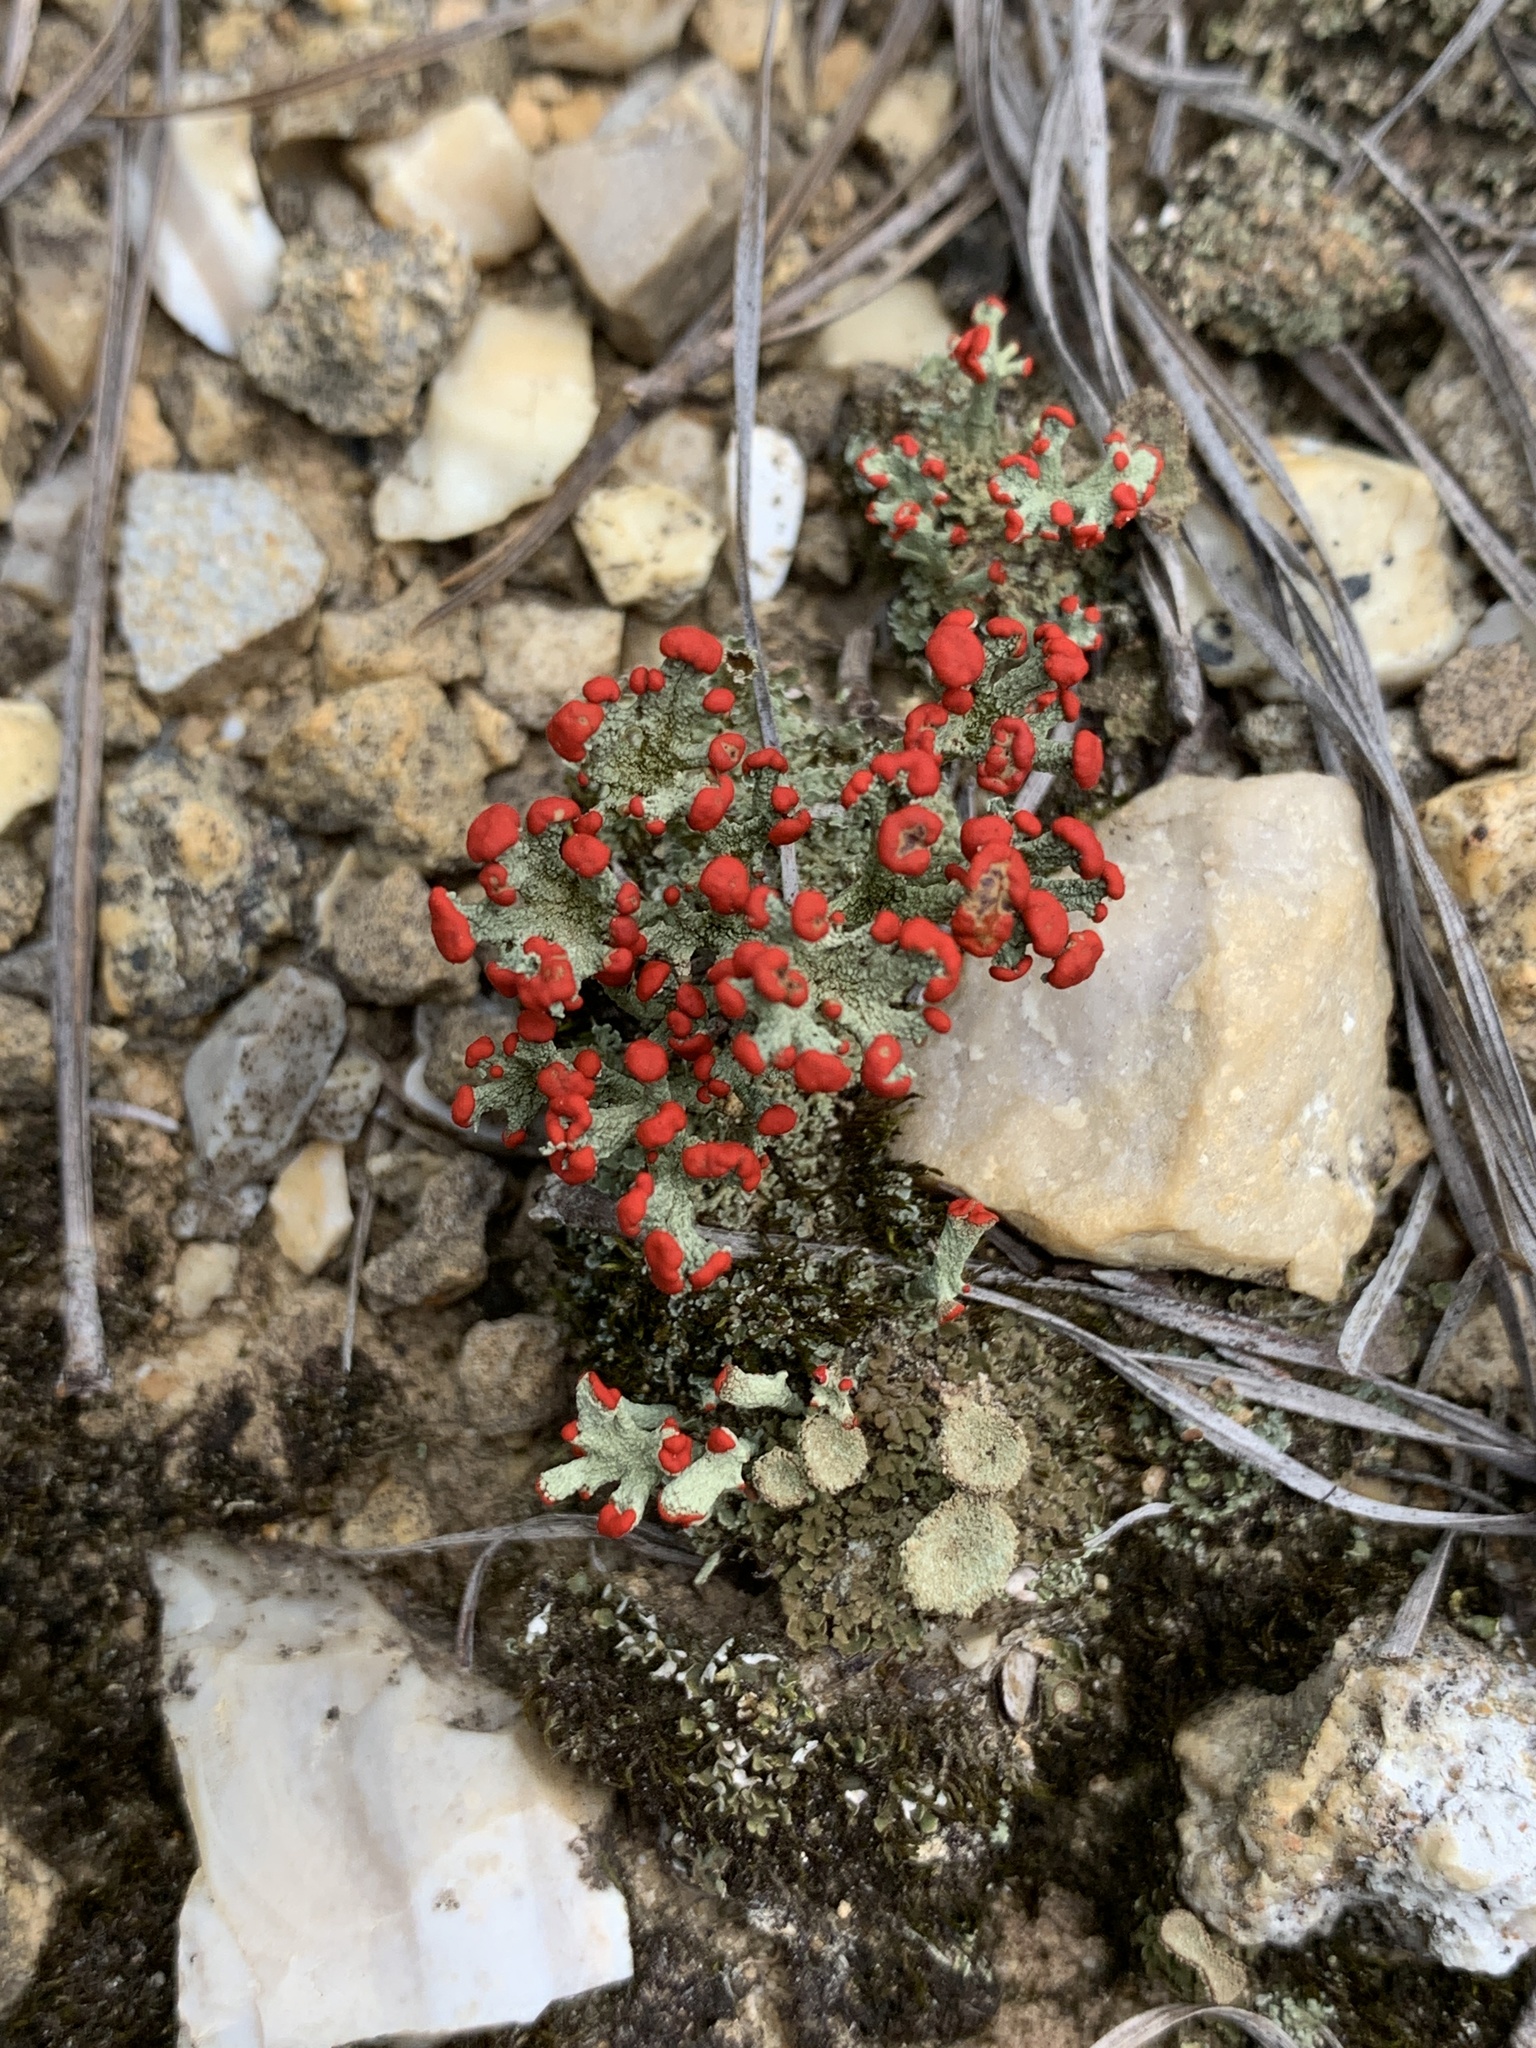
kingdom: Fungi
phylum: Ascomycota
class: Lecanoromycetes
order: Lecanorales
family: Cladoniaceae
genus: Cladonia
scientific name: Cladonia floerkeana
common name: Gritty british soldiers lichen
